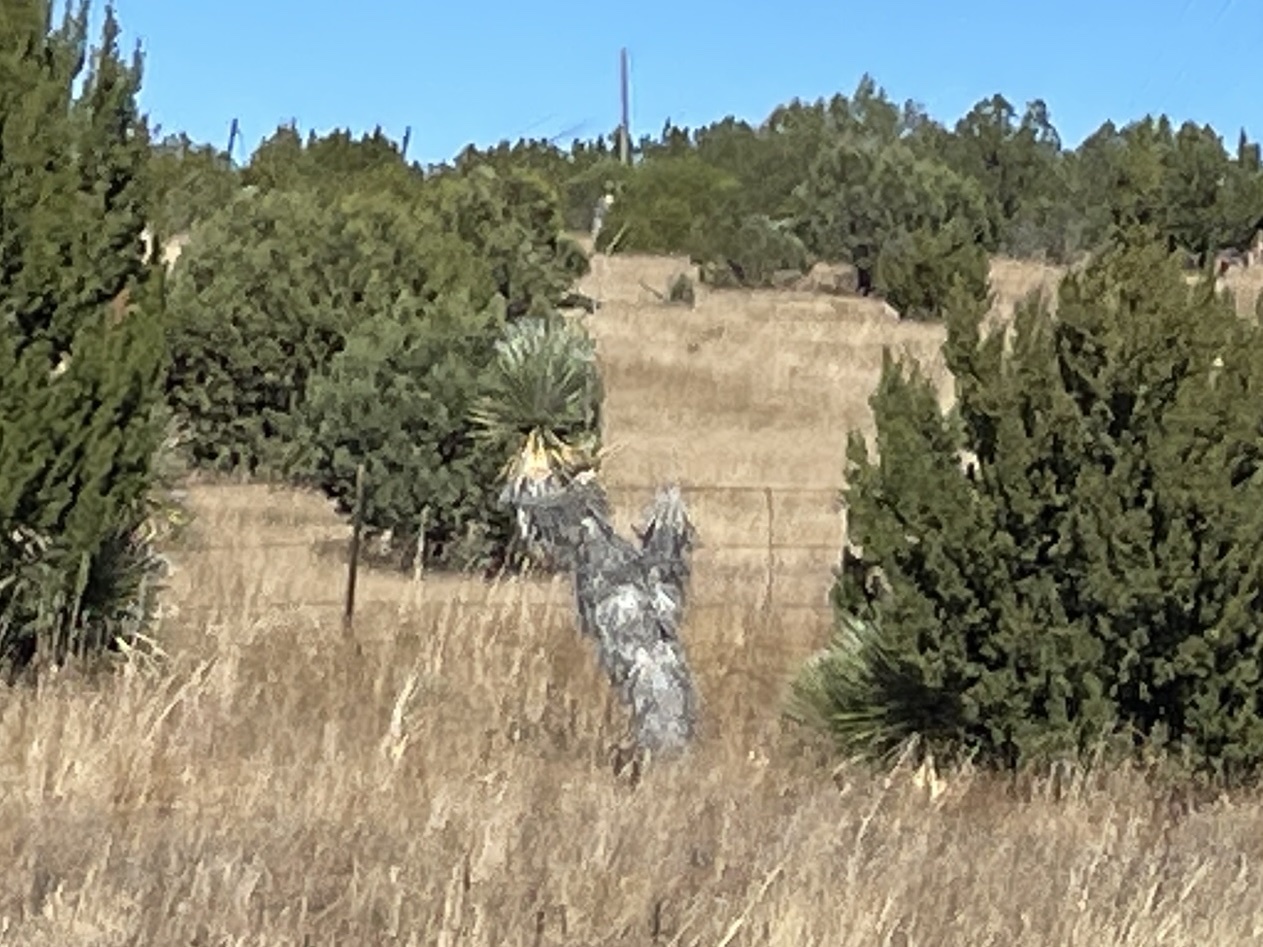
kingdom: Plantae
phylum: Tracheophyta
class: Liliopsida
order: Asparagales
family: Asparagaceae
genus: Yucca
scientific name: Yucca elata
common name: Palmella
